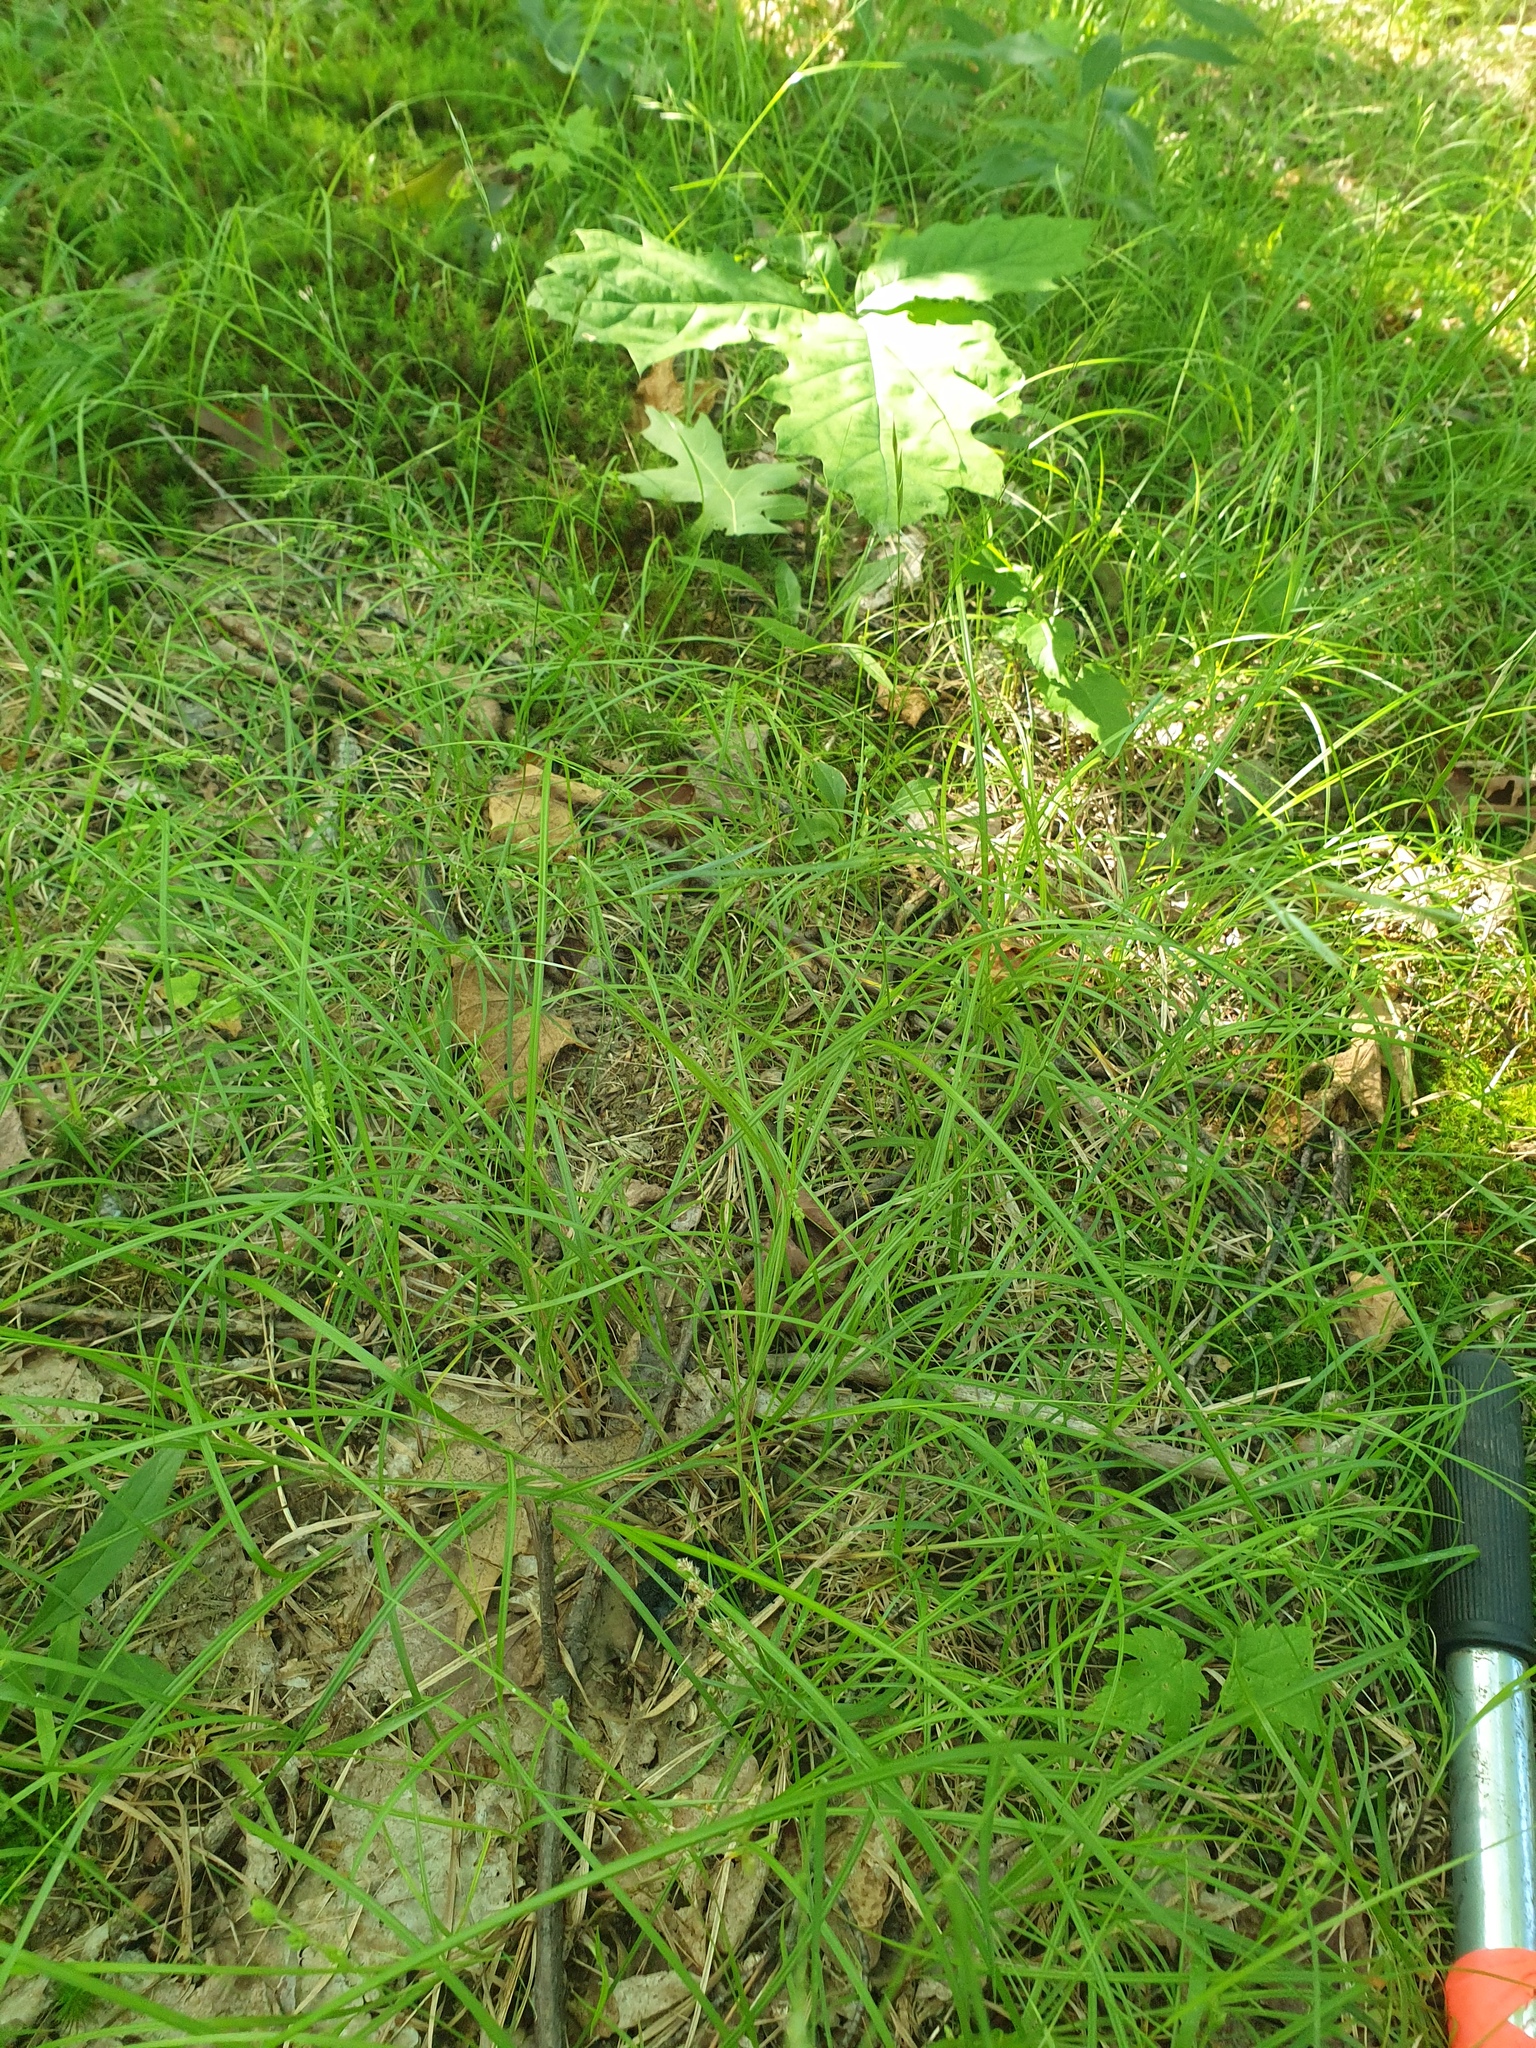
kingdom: Plantae
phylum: Tracheophyta
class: Liliopsida
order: Poales
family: Cyperaceae
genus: Carex
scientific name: Carex swanii
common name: Downy green sedge
